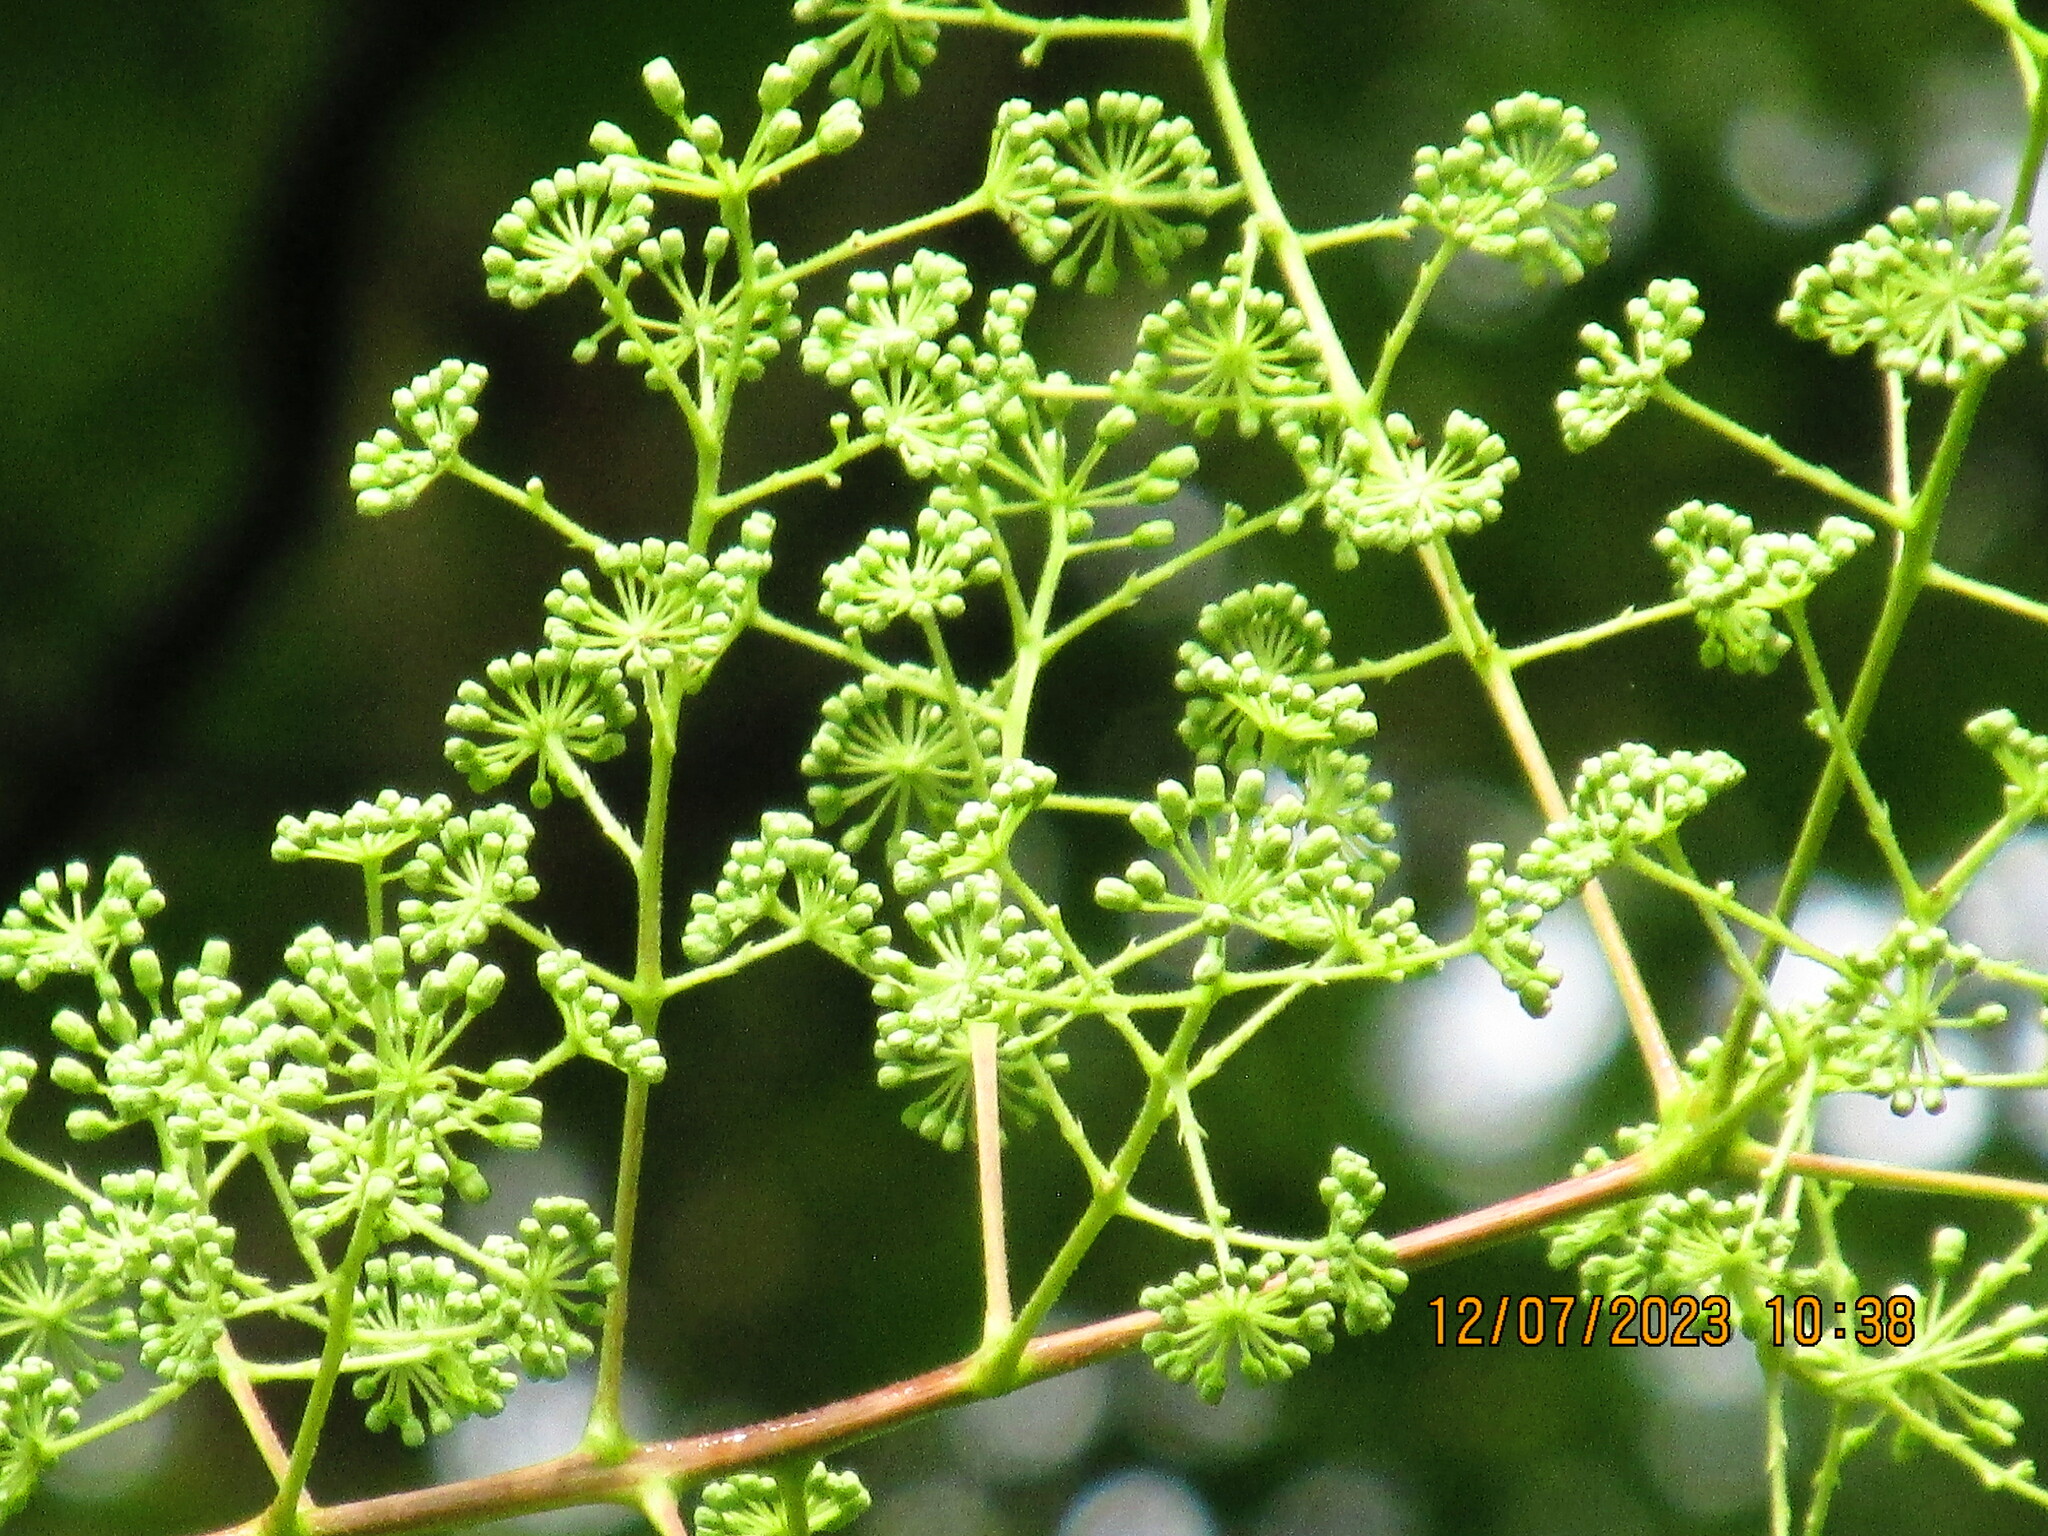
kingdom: Plantae
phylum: Tracheophyta
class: Magnoliopsida
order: Apiales
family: Araliaceae
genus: Aralia
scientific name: Aralia spinosa
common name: Hercules'-club
